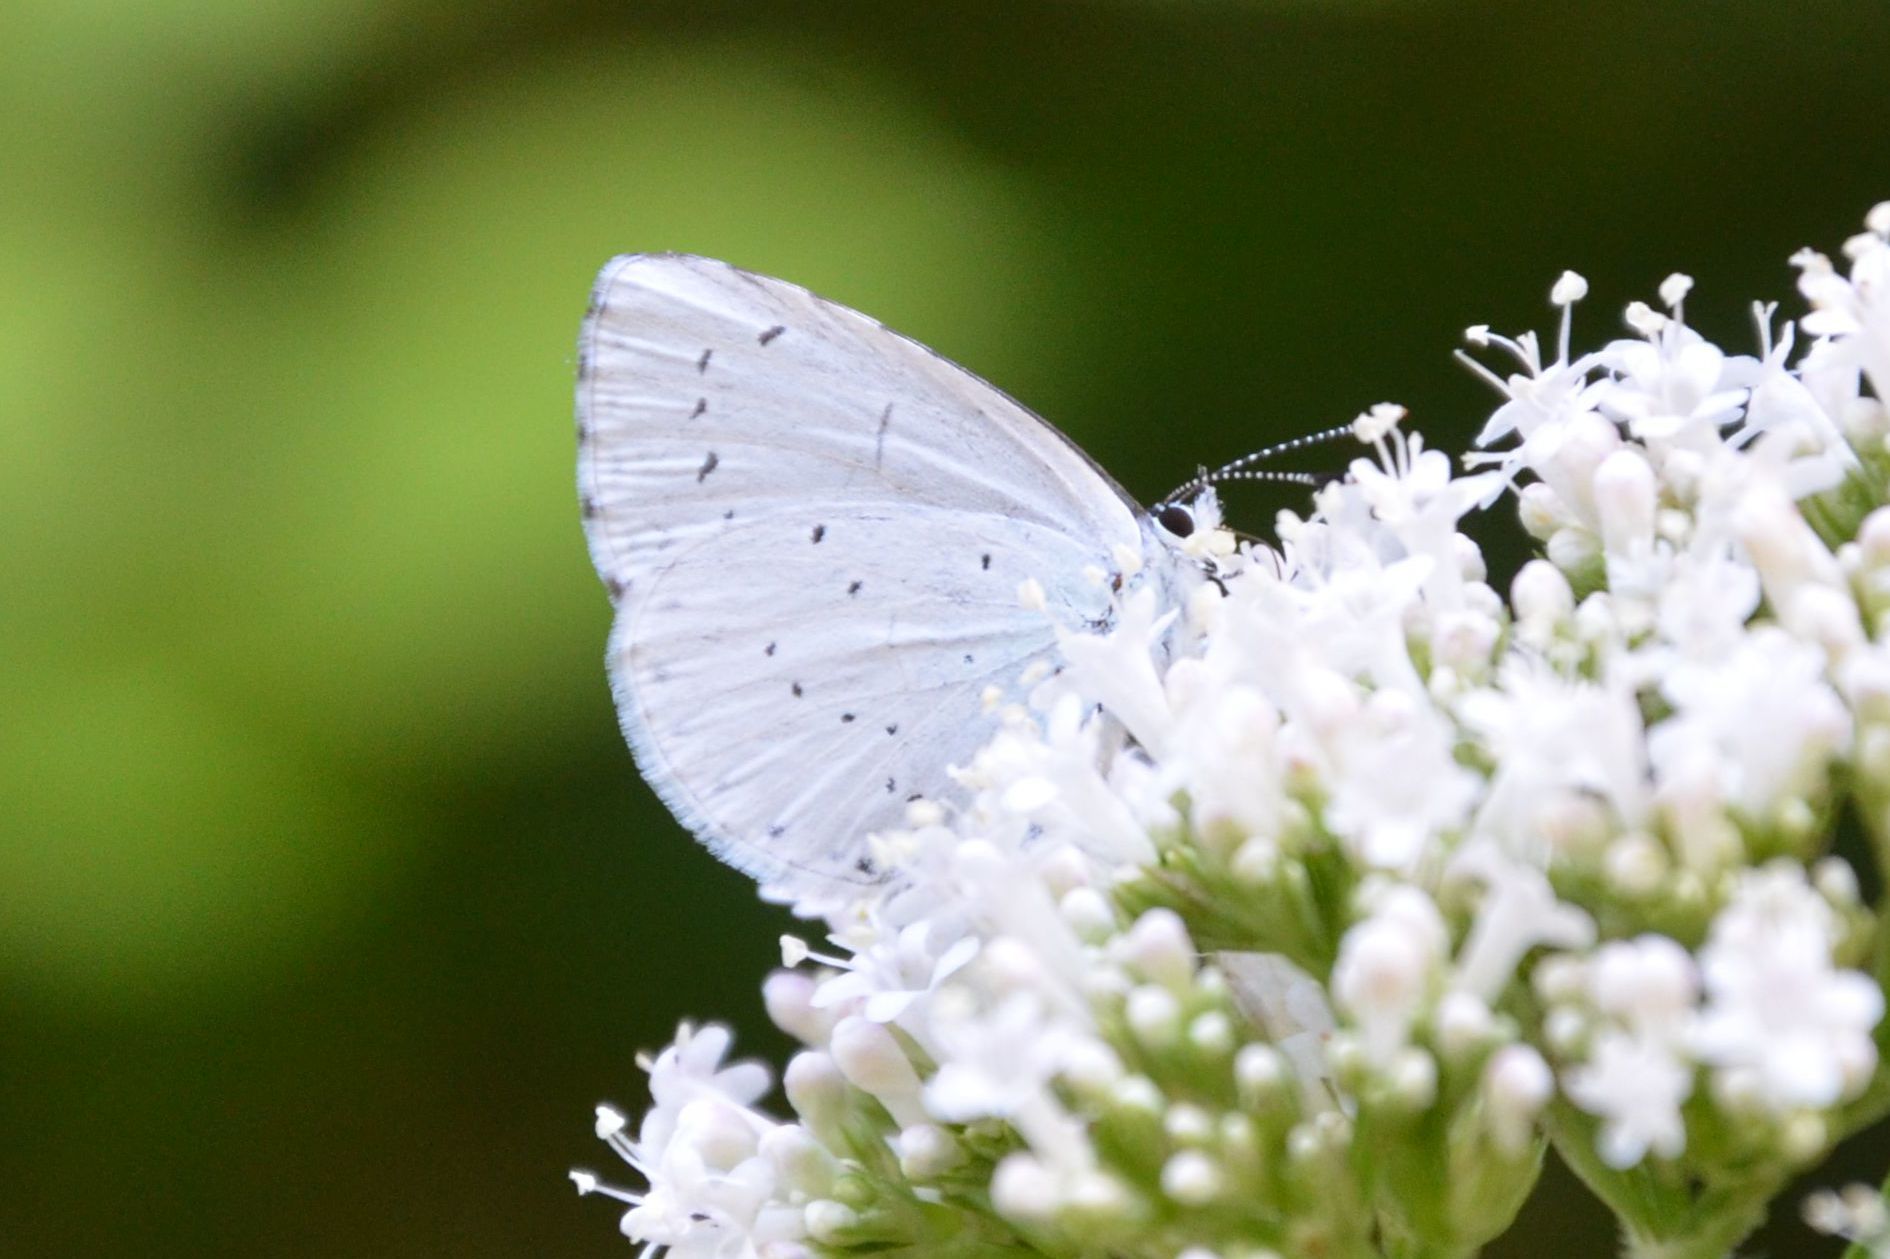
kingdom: Animalia
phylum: Arthropoda
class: Insecta
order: Lepidoptera
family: Lycaenidae
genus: Celastrina
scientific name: Celastrina argiolus
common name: Holly blue
